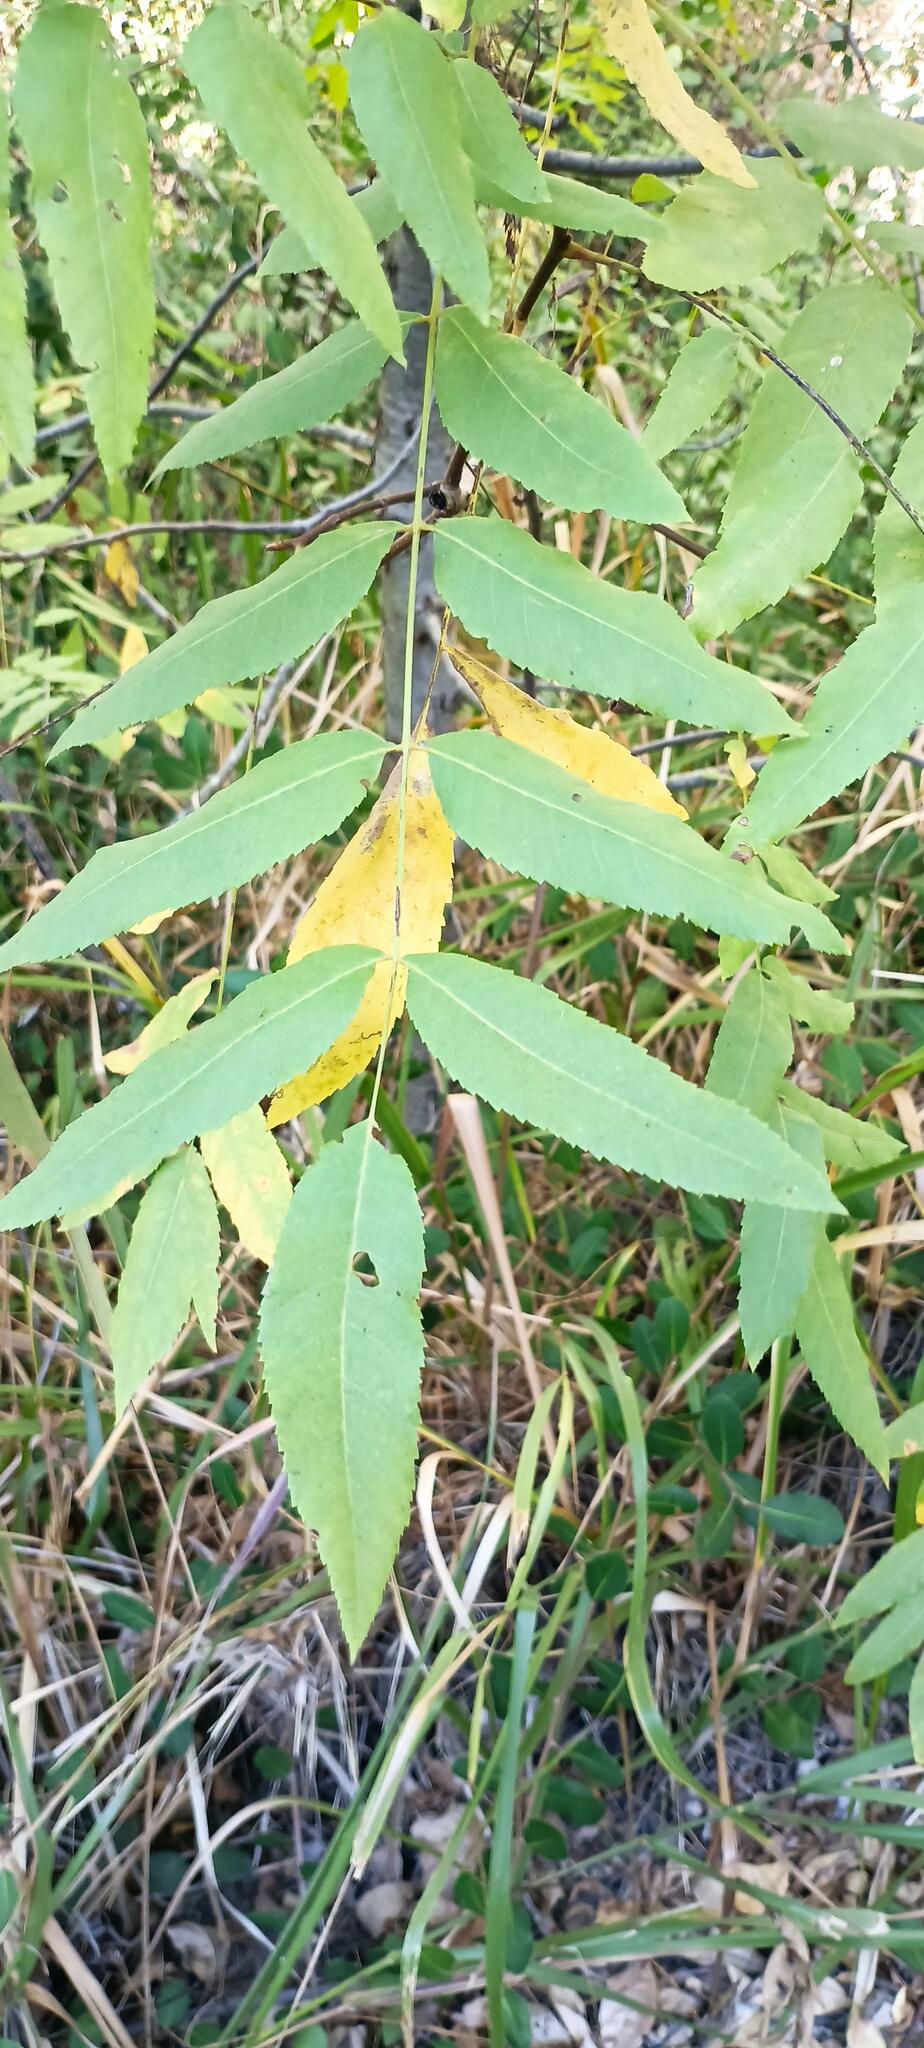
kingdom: Plantae
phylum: Tracheophyta
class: Magnoliopsida
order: Fagales
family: Juglandaceae
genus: Juglans
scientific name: Juglans californica
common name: Southern california black walnut
